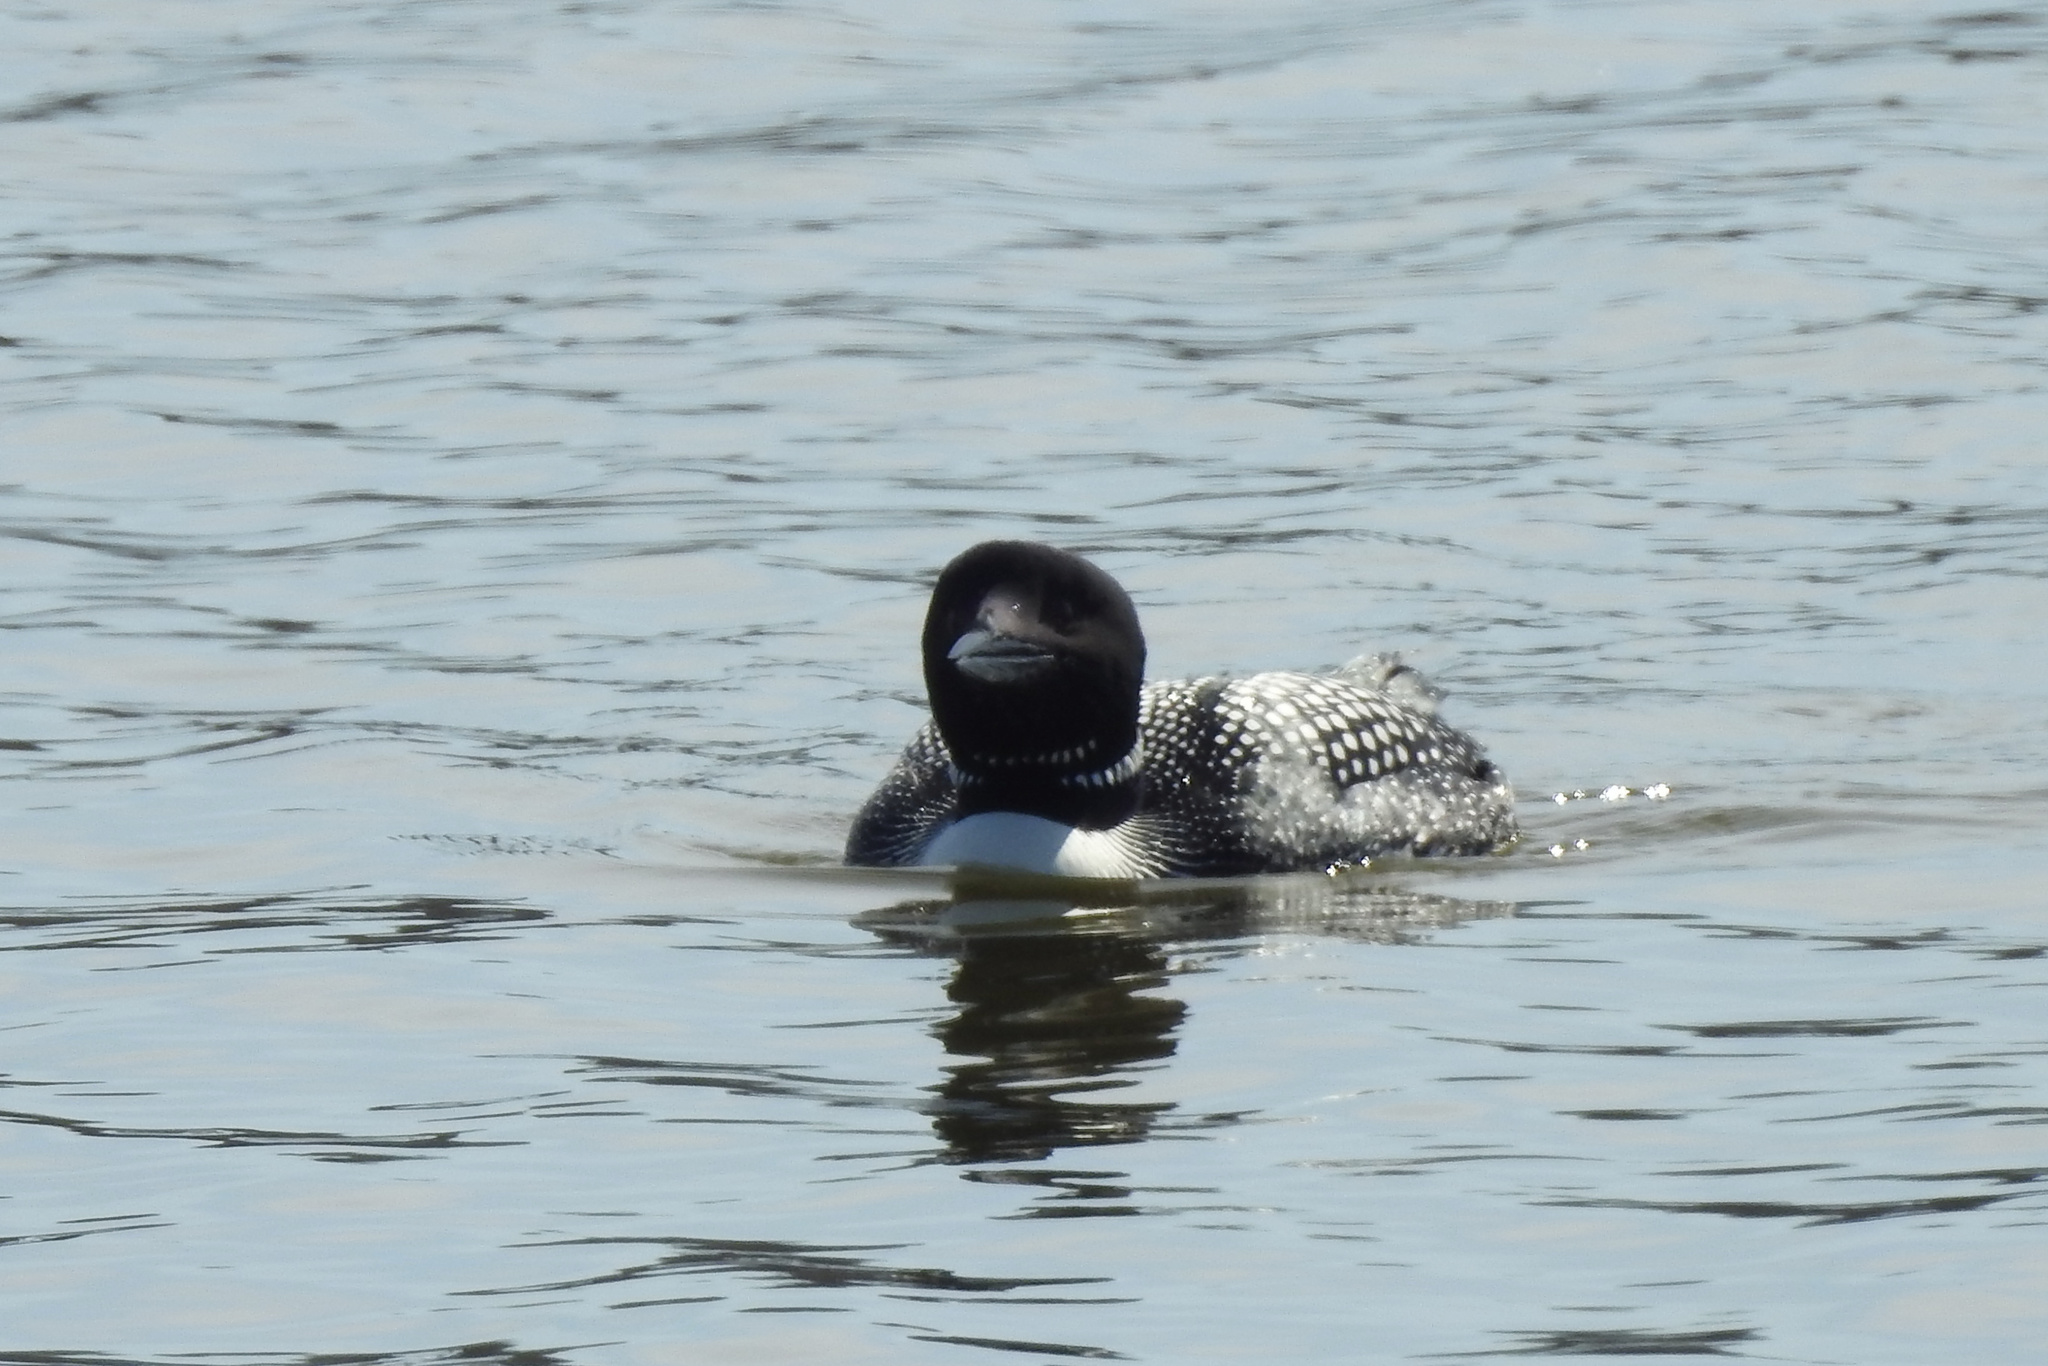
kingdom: Animalia
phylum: Chordata
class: Aves
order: Gaviiformes
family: Gaviidae
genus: Gavia
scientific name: Gavia immer
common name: Common loon
